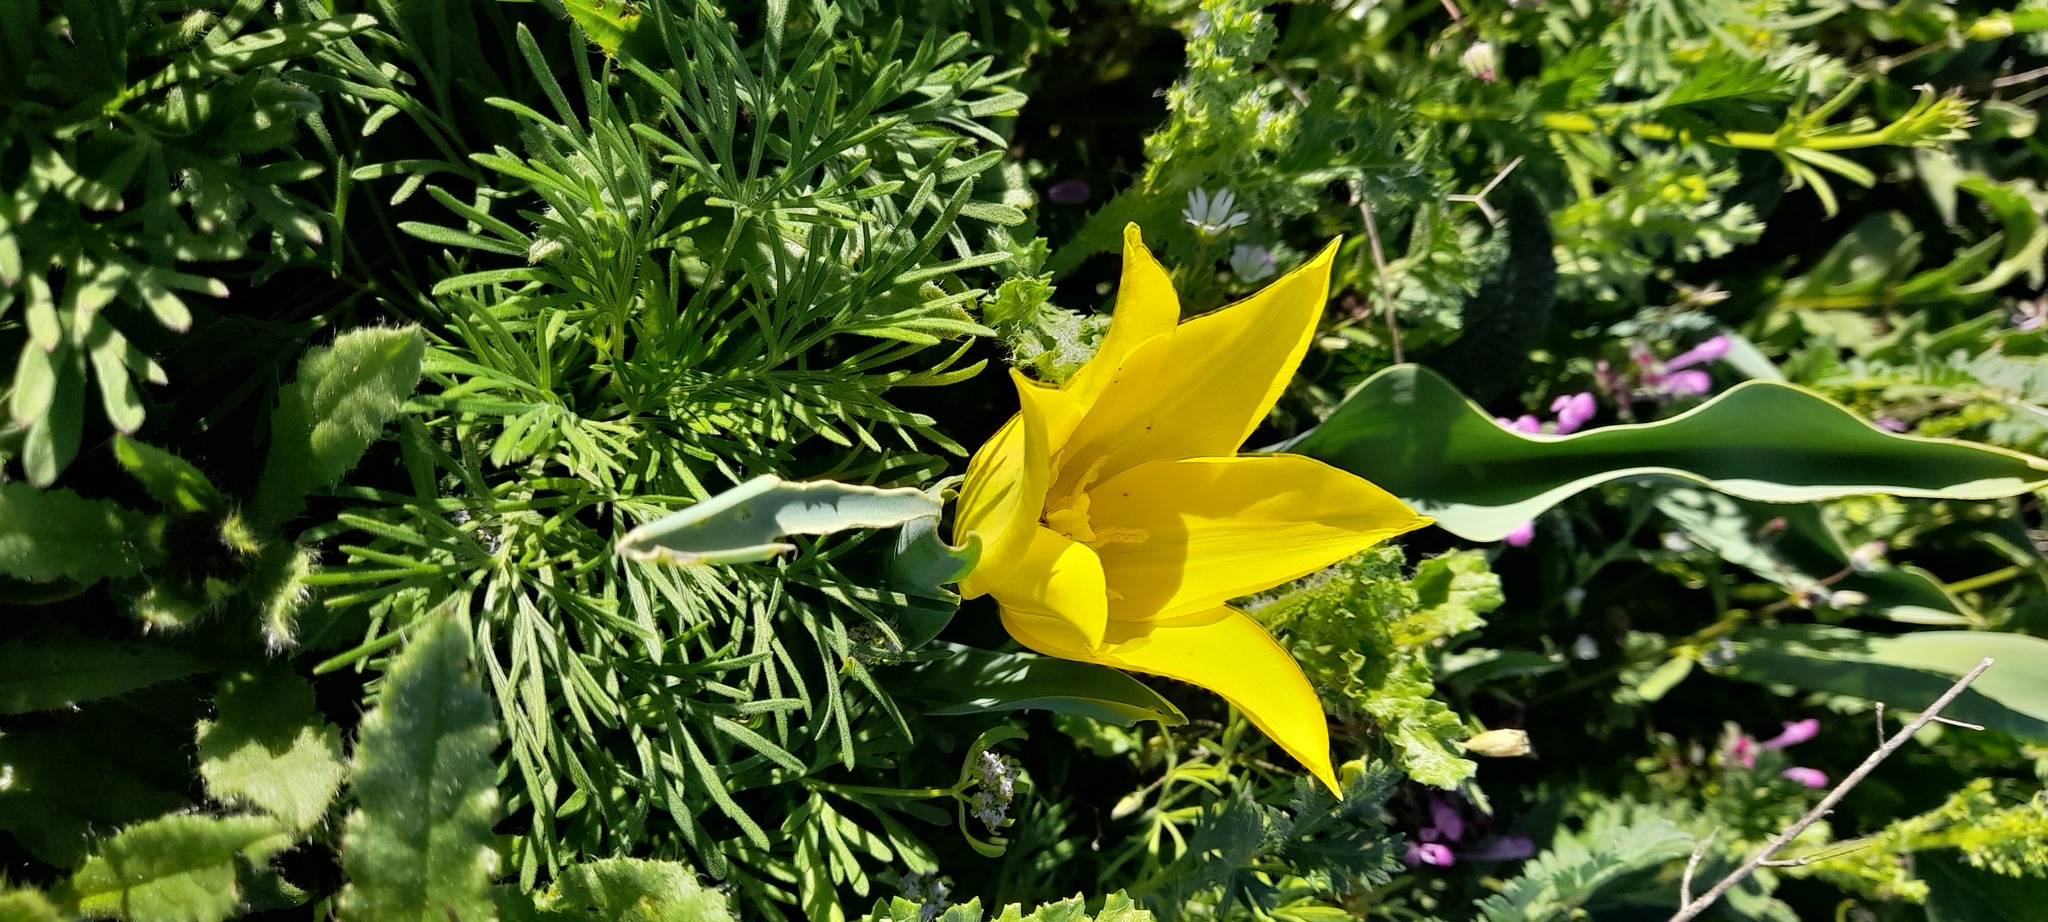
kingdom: Plantae
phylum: Tracheophyta
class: Liliopsida
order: Liliales
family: Liliaceae
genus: Tulipa
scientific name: Tulipa suaveolens
